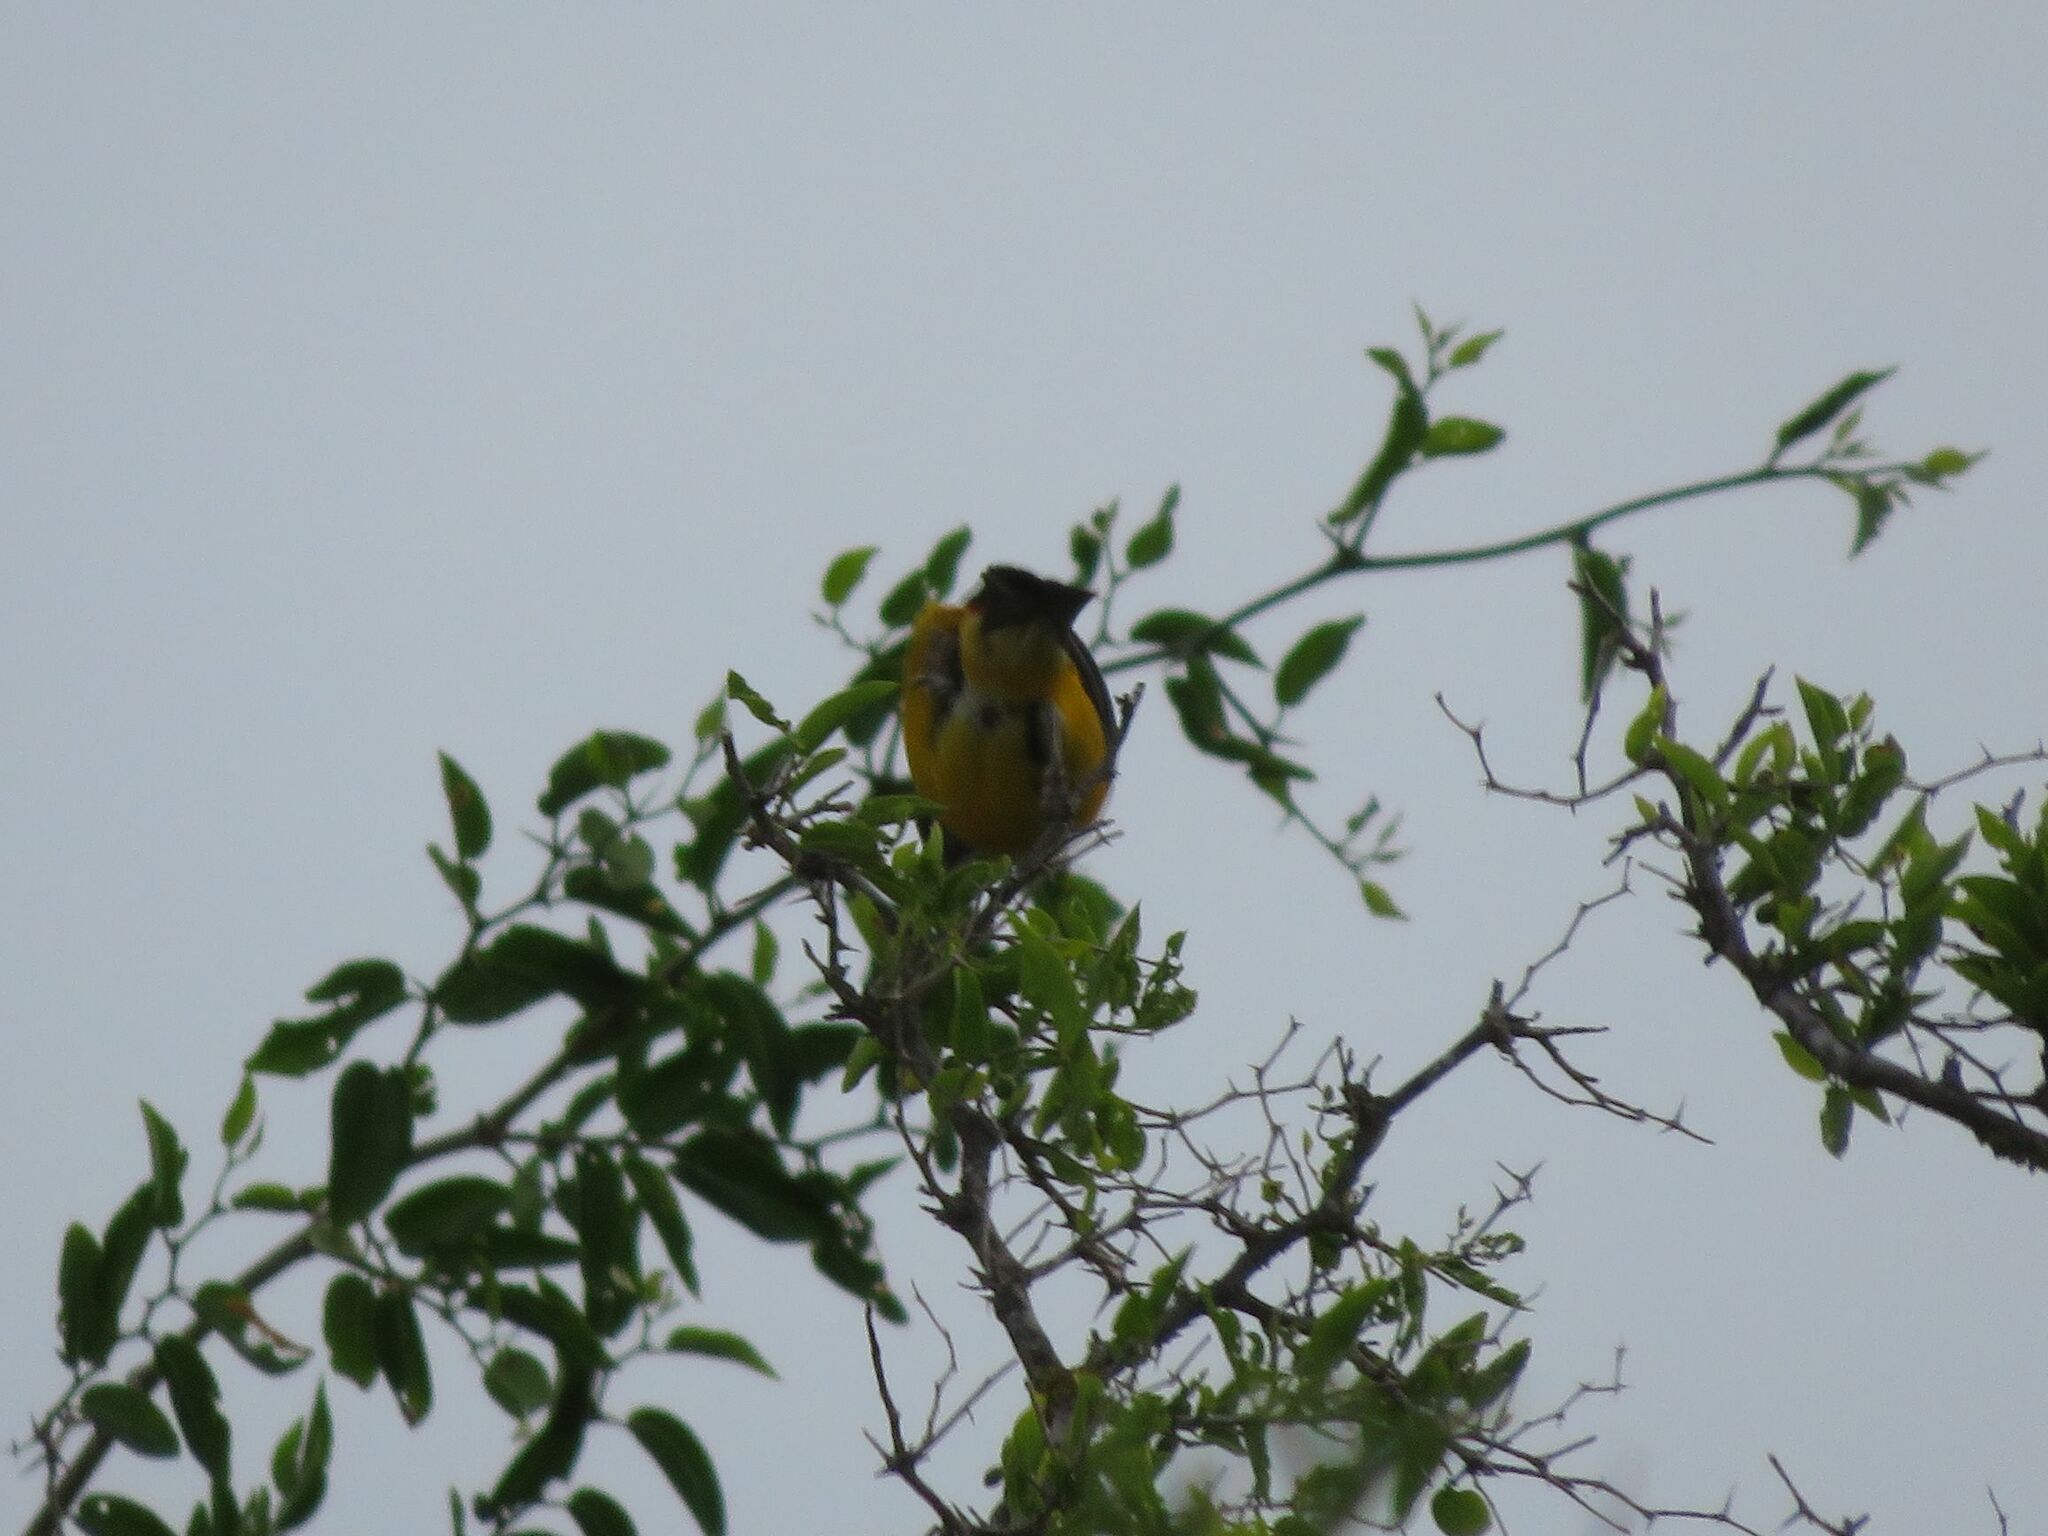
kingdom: Animalia
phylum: Chordata
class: Aves
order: Passeriformes
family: Thraupidae
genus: Rauenia
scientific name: Rauenia bonariensis
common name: Blue-and-yellow tanager
